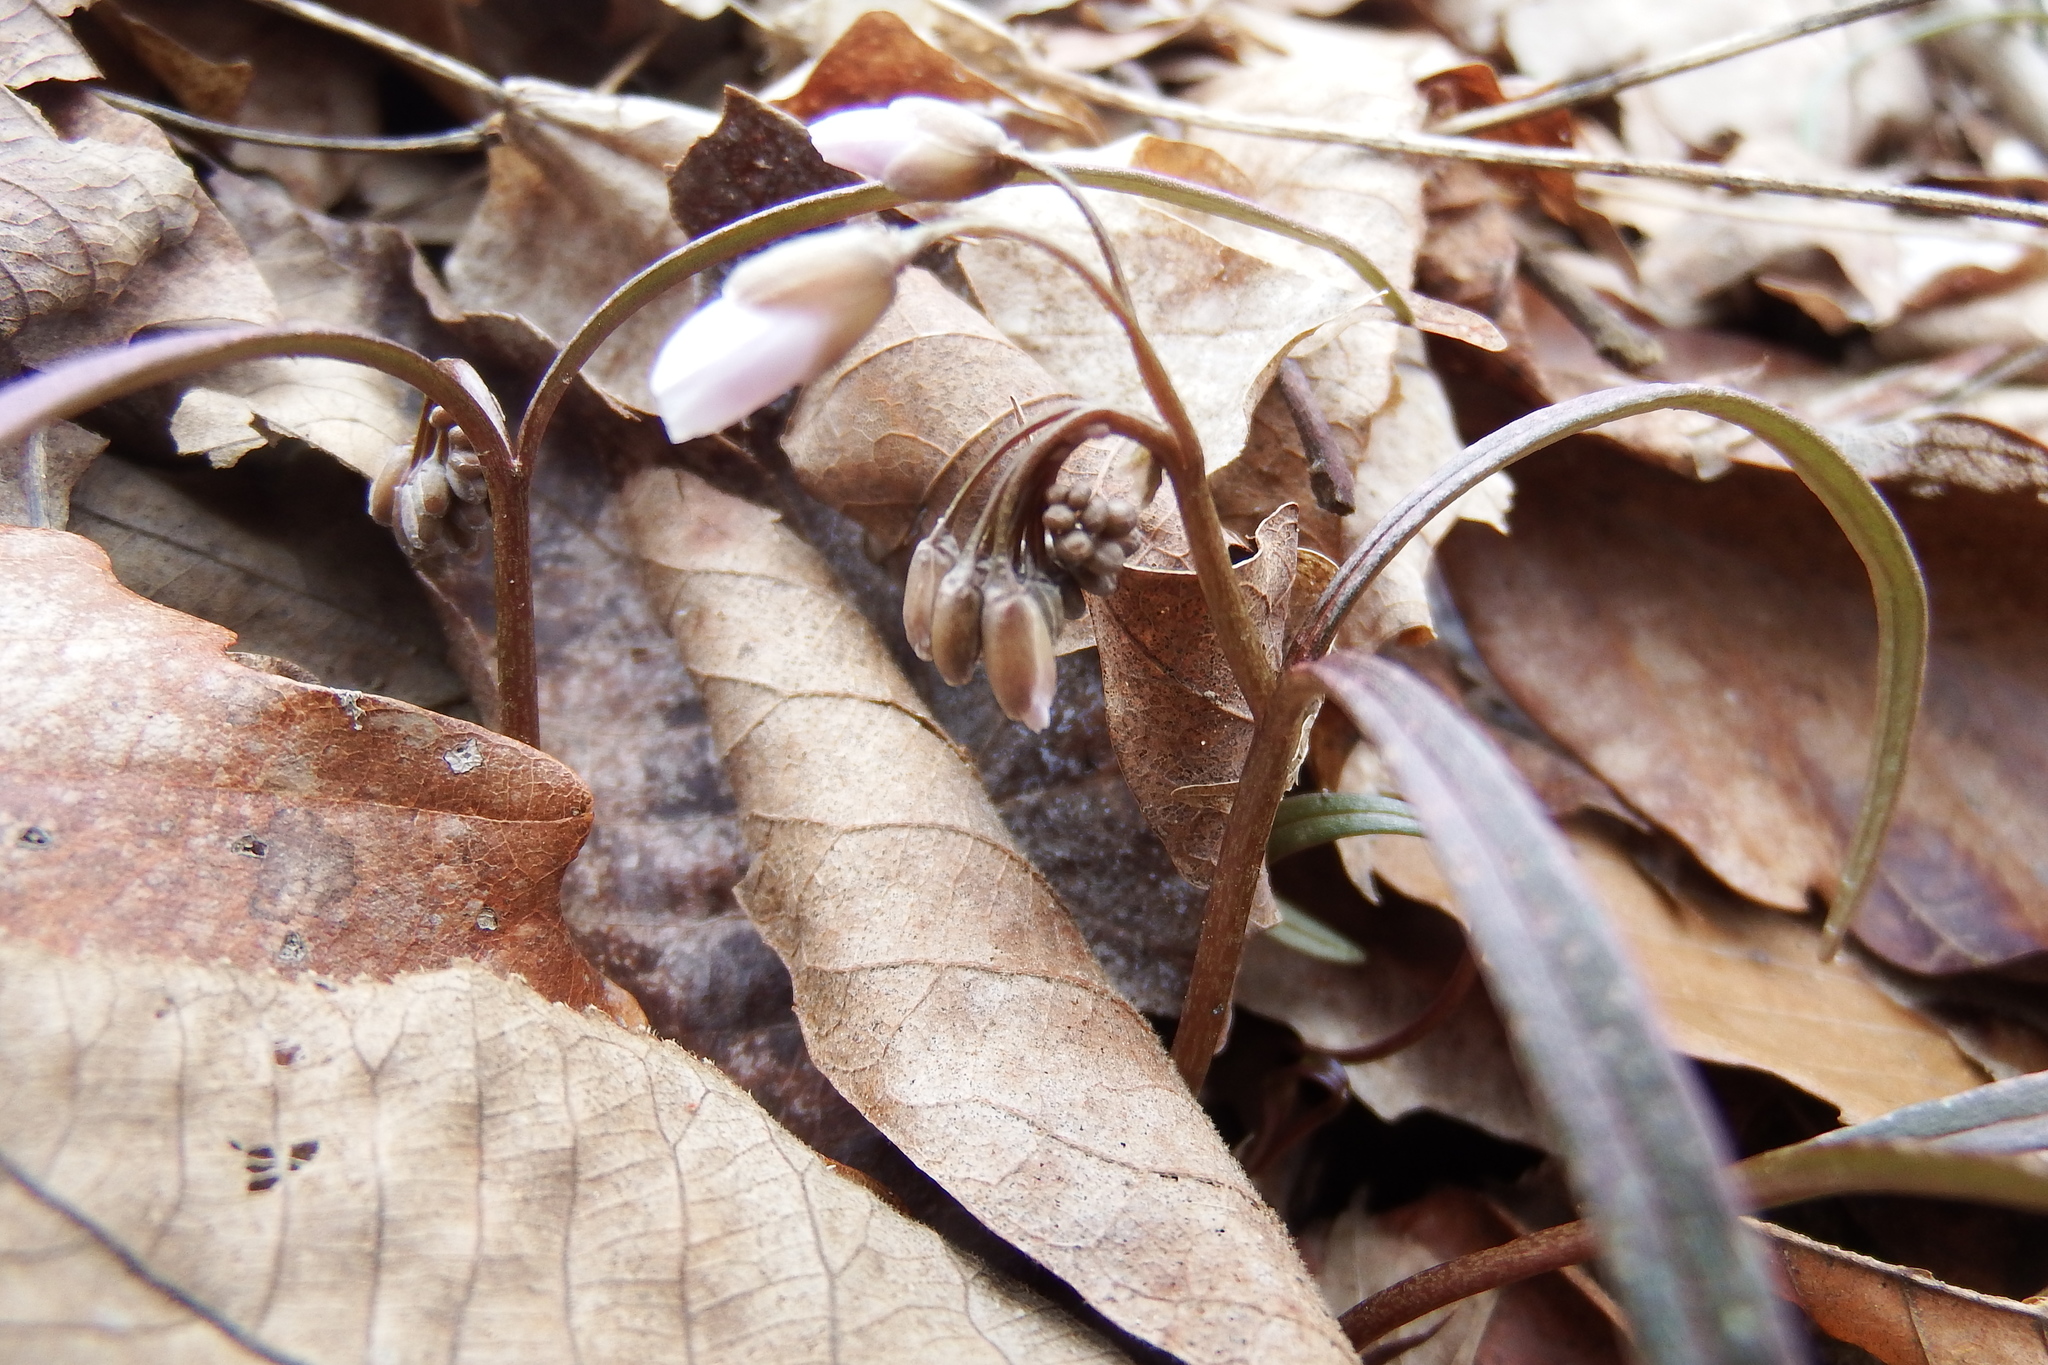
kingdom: Plantae
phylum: Tracheophyta
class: Magnoliopsida
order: Caryophyllales
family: Montiaceae
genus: Claytonia
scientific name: Claytonia virginica
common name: Virginia springbeauty
